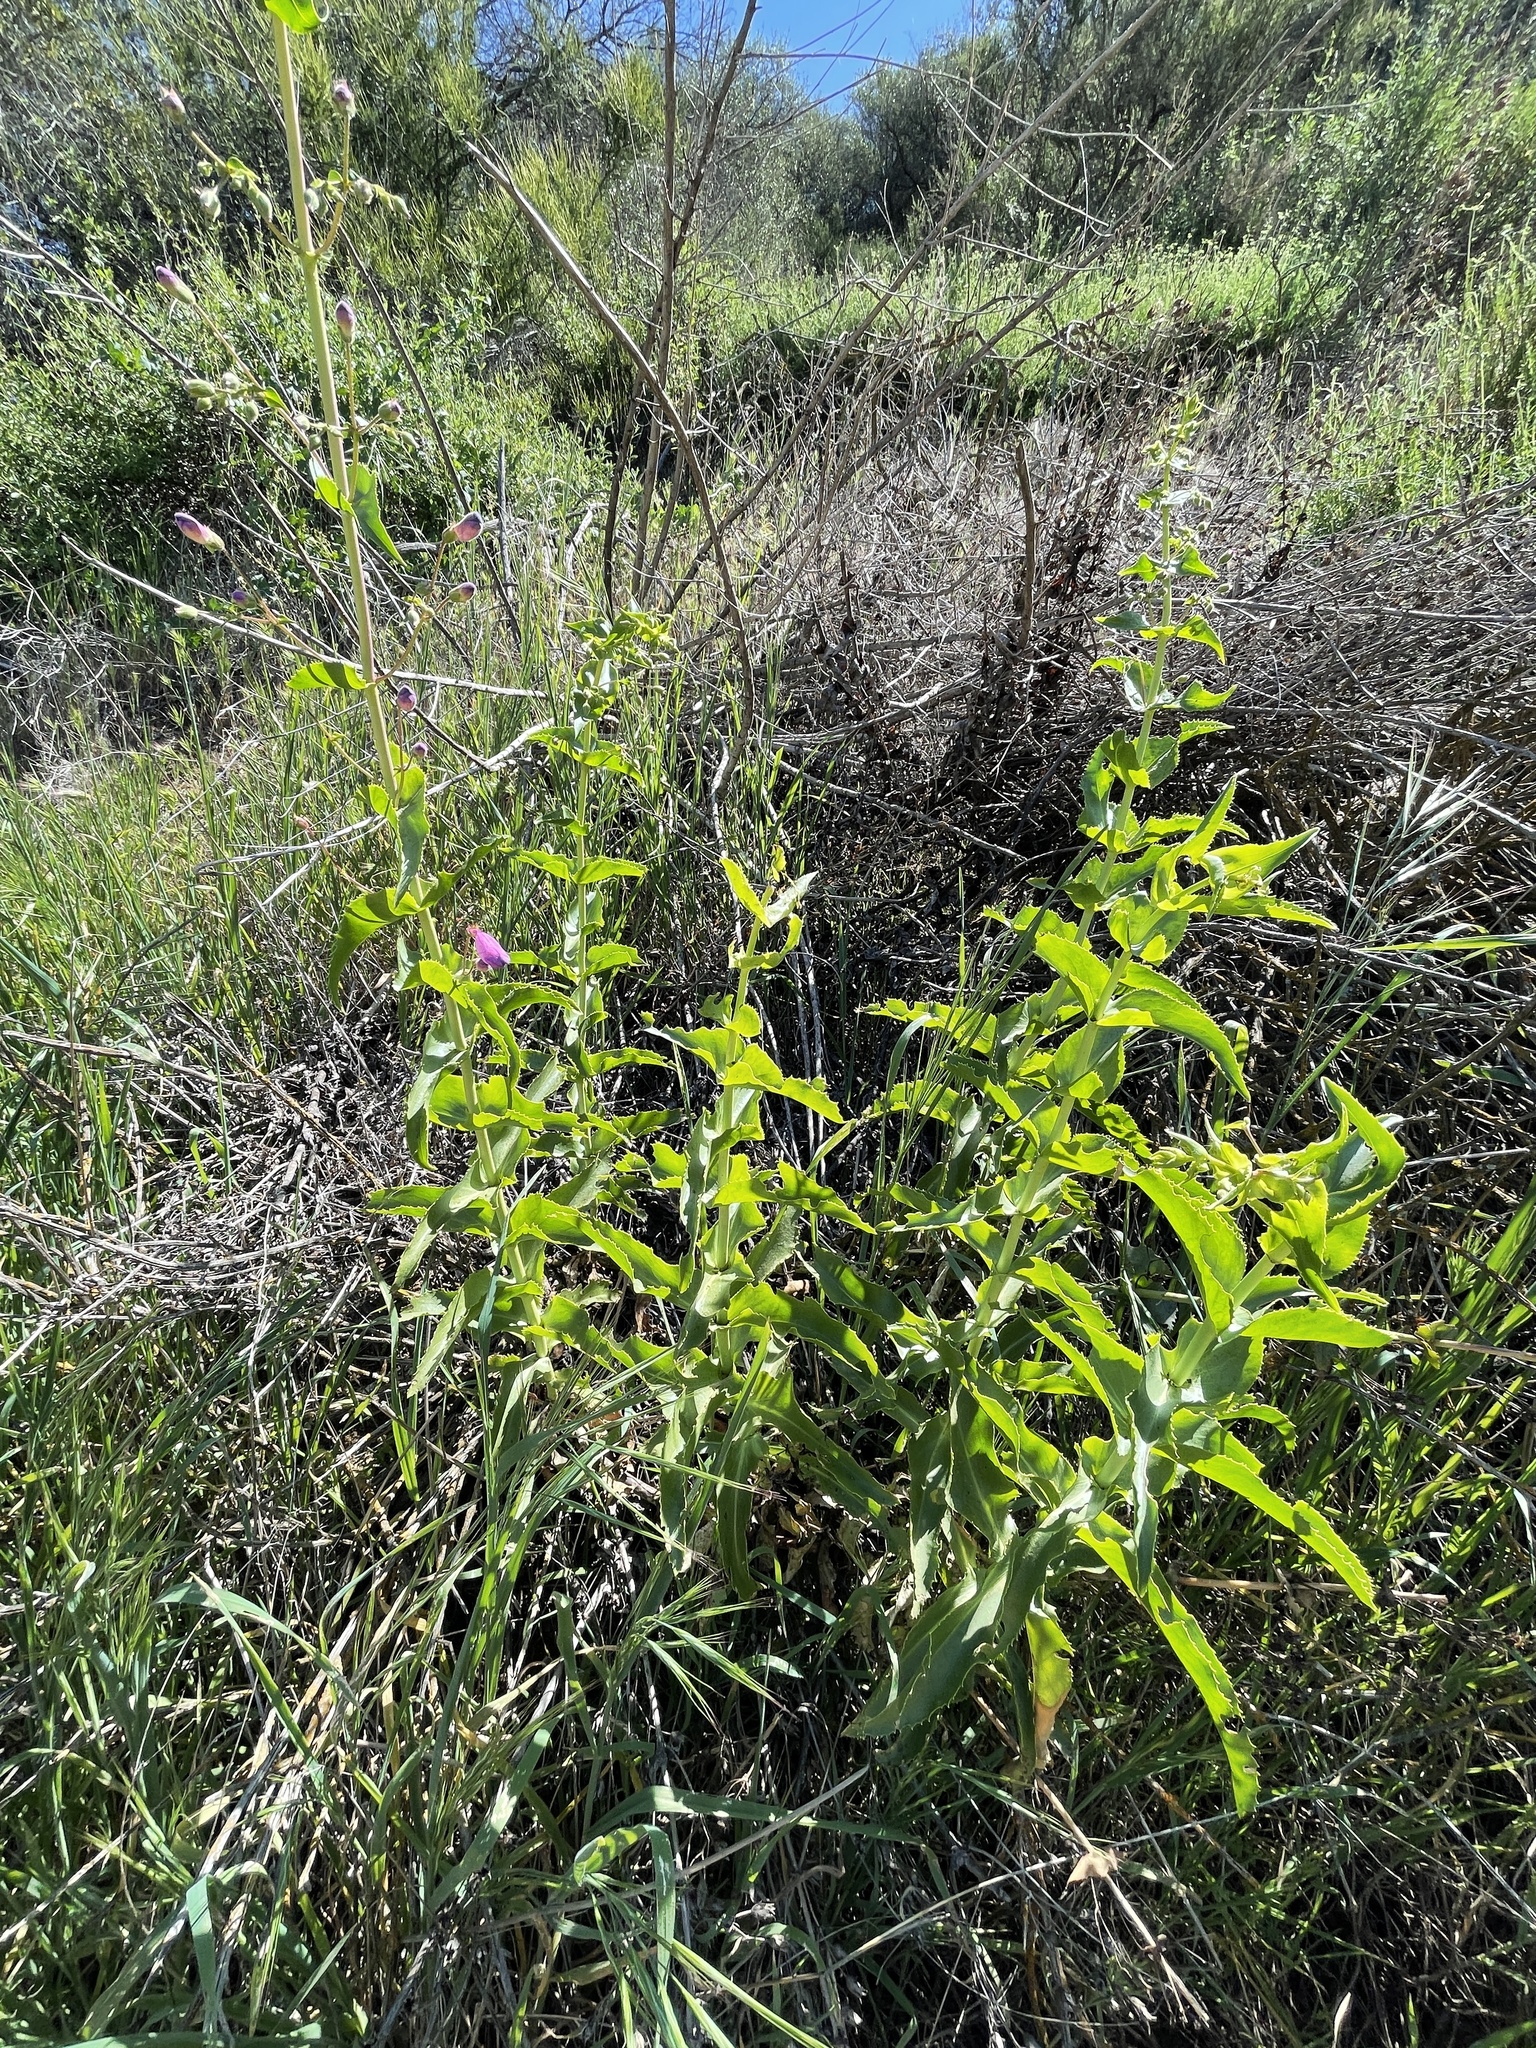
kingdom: Plantae
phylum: Tracheophyta
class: Magnoliopsida
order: Lamiales
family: Plantaginaceae
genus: Penstemon
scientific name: Penstemon spectabilis
